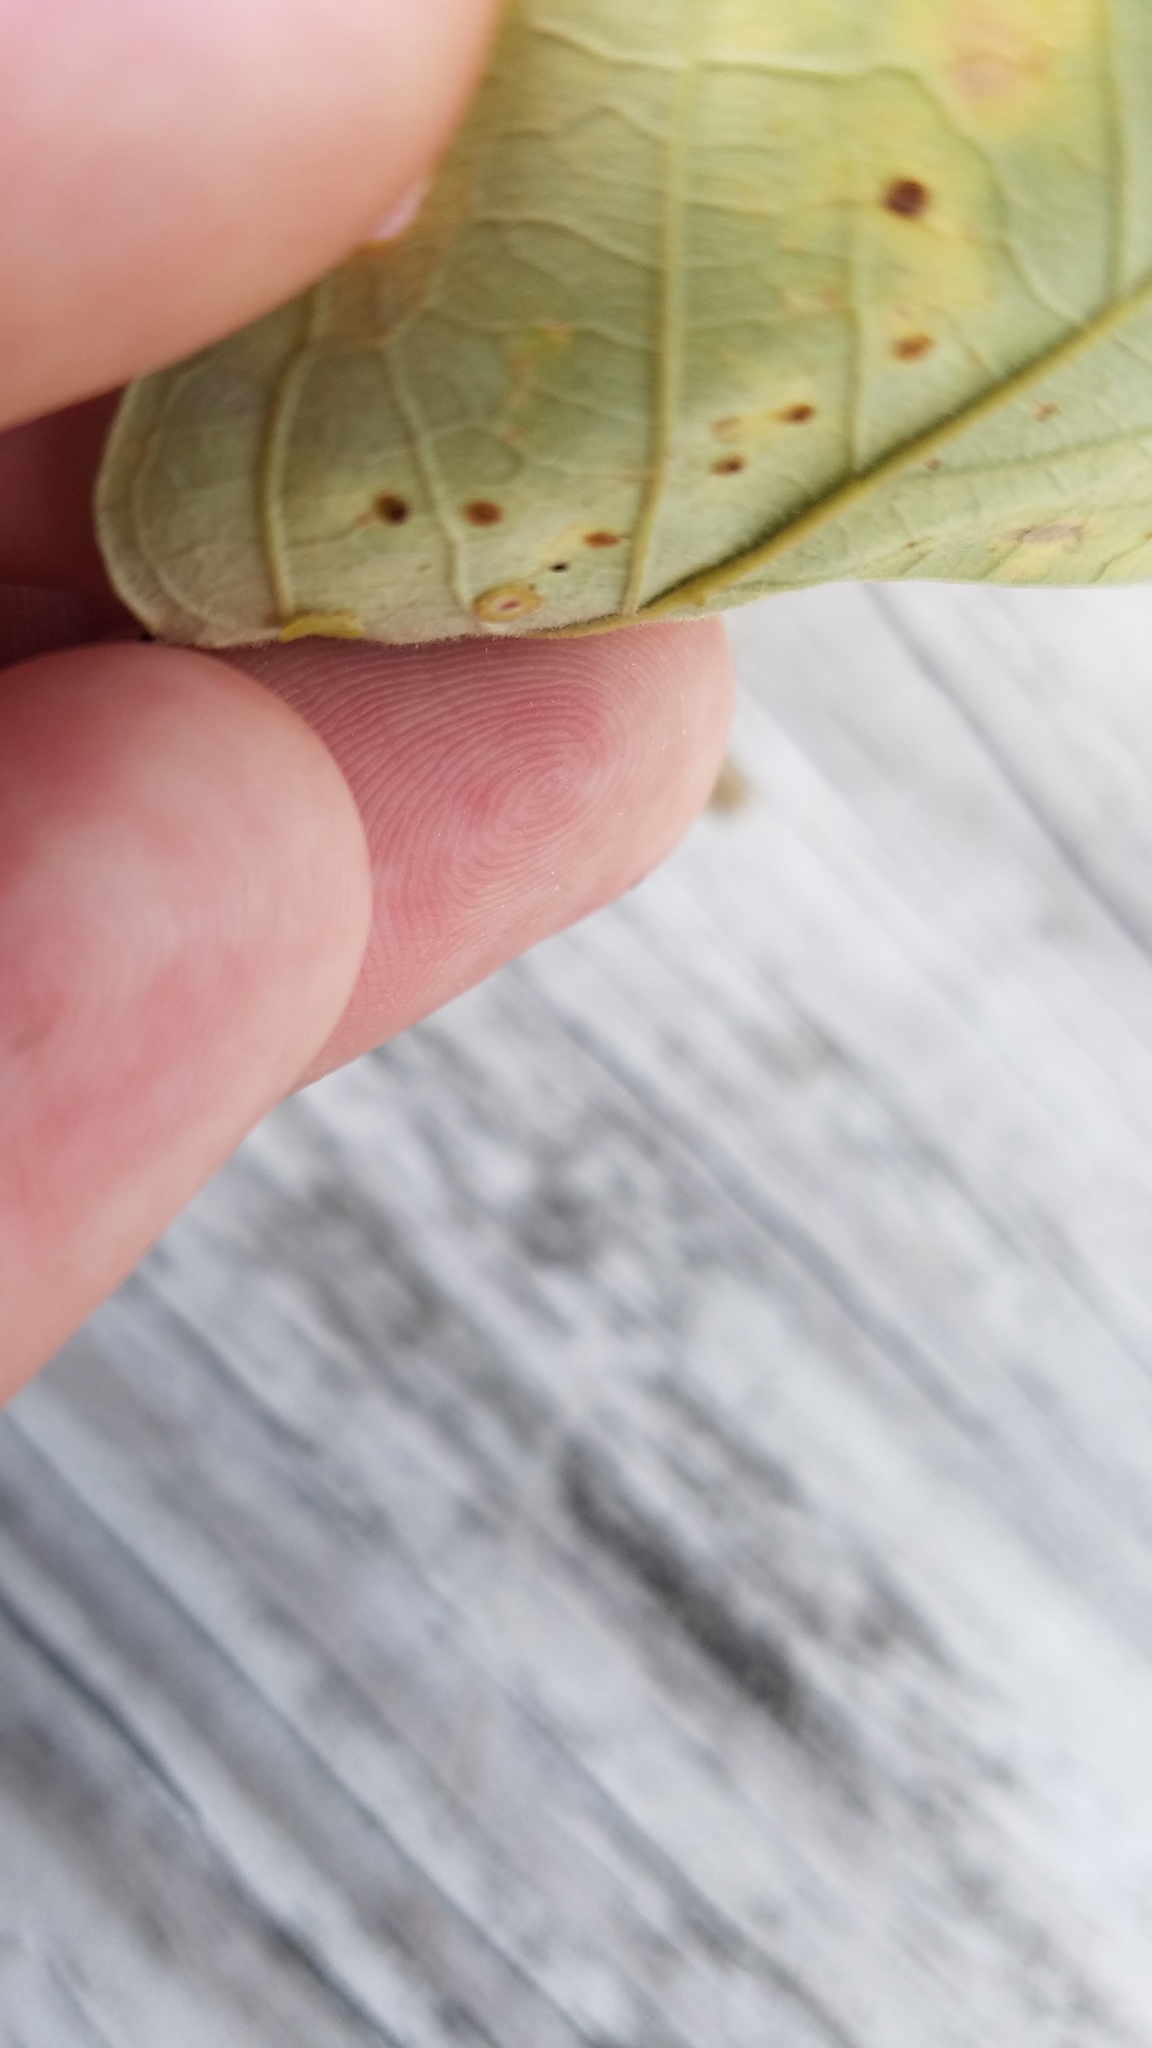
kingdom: Animalia
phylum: Arthropoda
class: Insecta
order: Hymenoptera
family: Cynipidae
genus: Phylloteras
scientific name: Phylloteras
